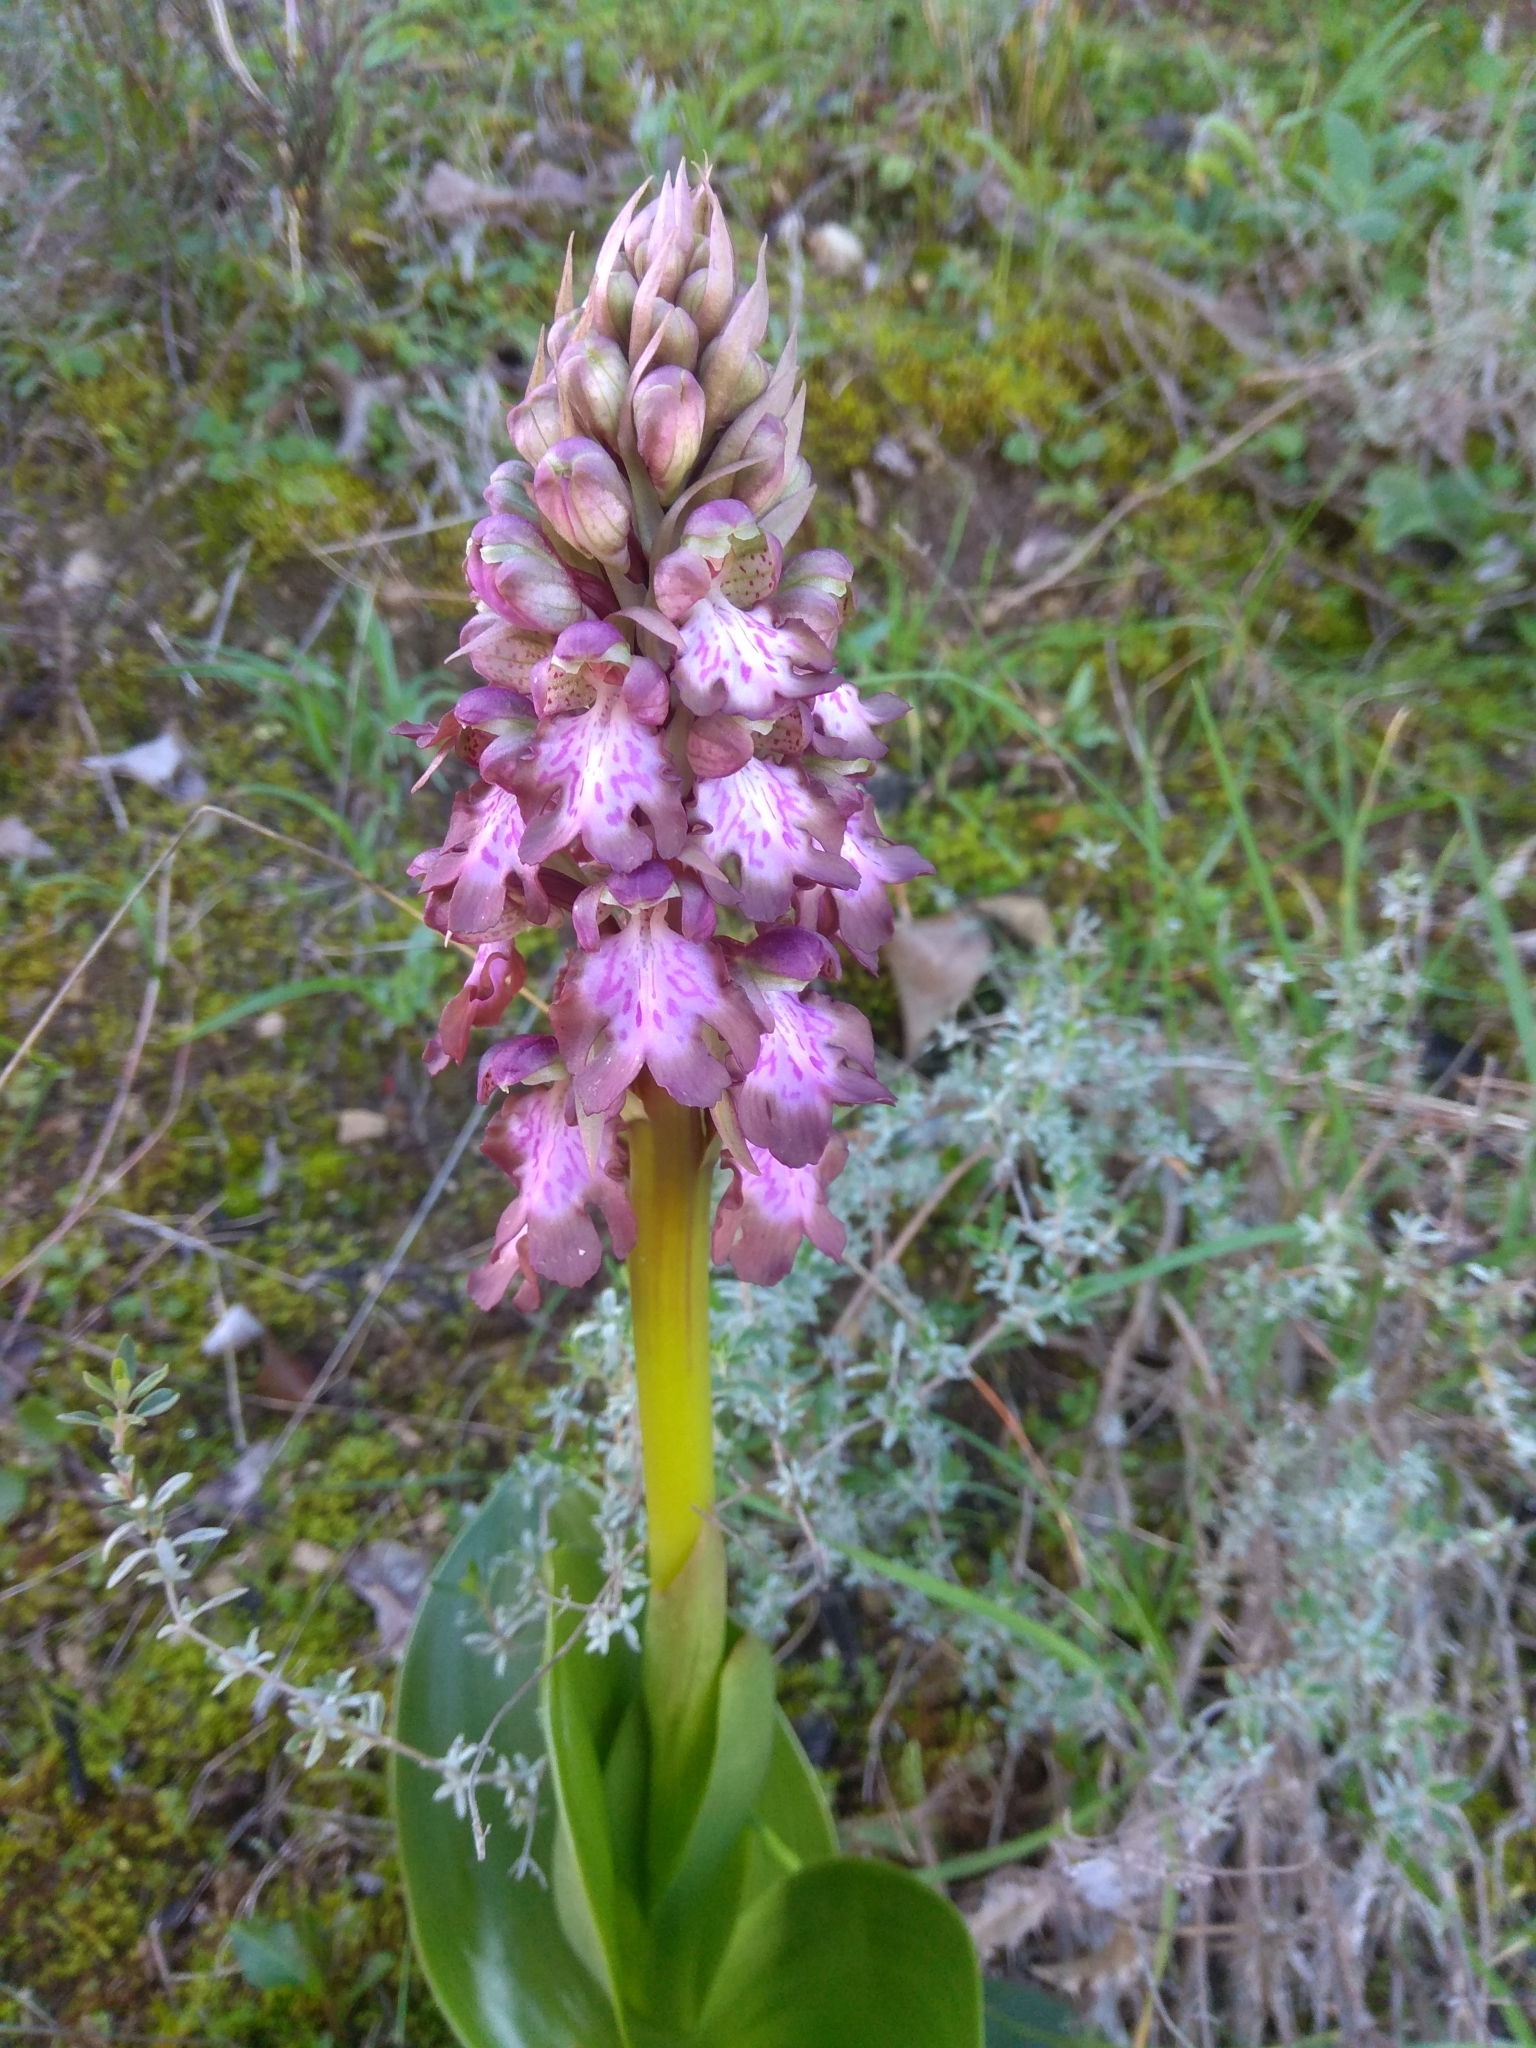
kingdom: Plantae
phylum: Tracheophyta
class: Liliopsida
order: Asparagales
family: Orchidaceae
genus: Himantoglossum
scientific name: Himantoglossum robertianum
